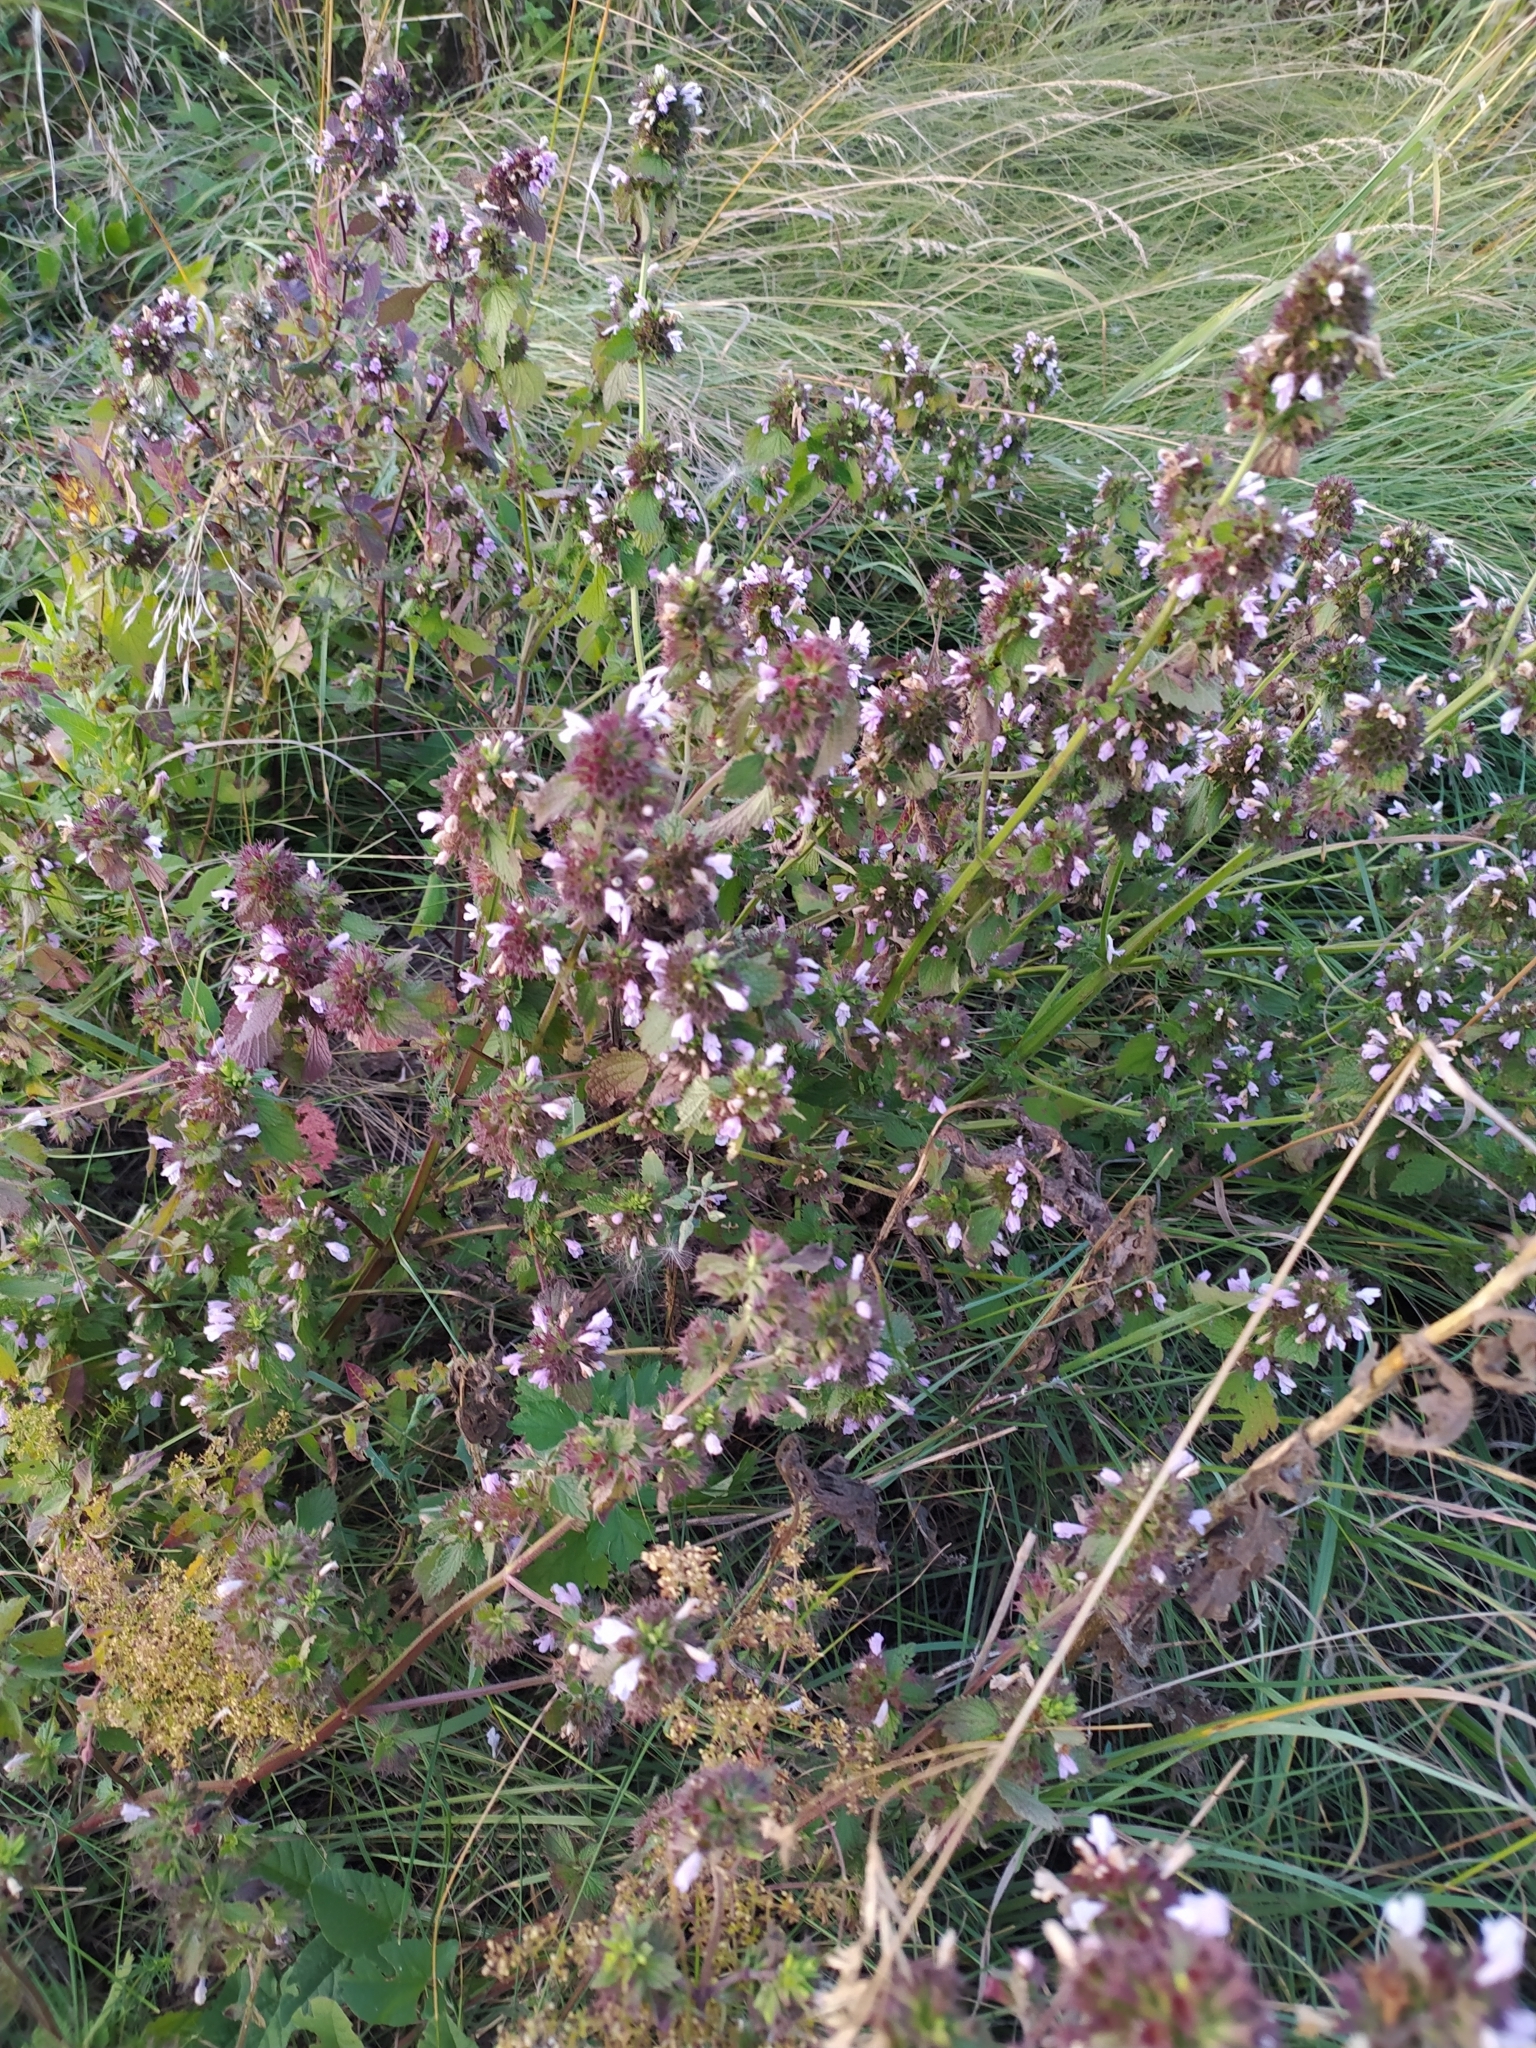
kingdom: Plantae
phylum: Tracheophyta
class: Magnoliopsida
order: Lamiales
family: Lamiaceae
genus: Ballota
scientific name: Ballota nigra
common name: Black horehound
